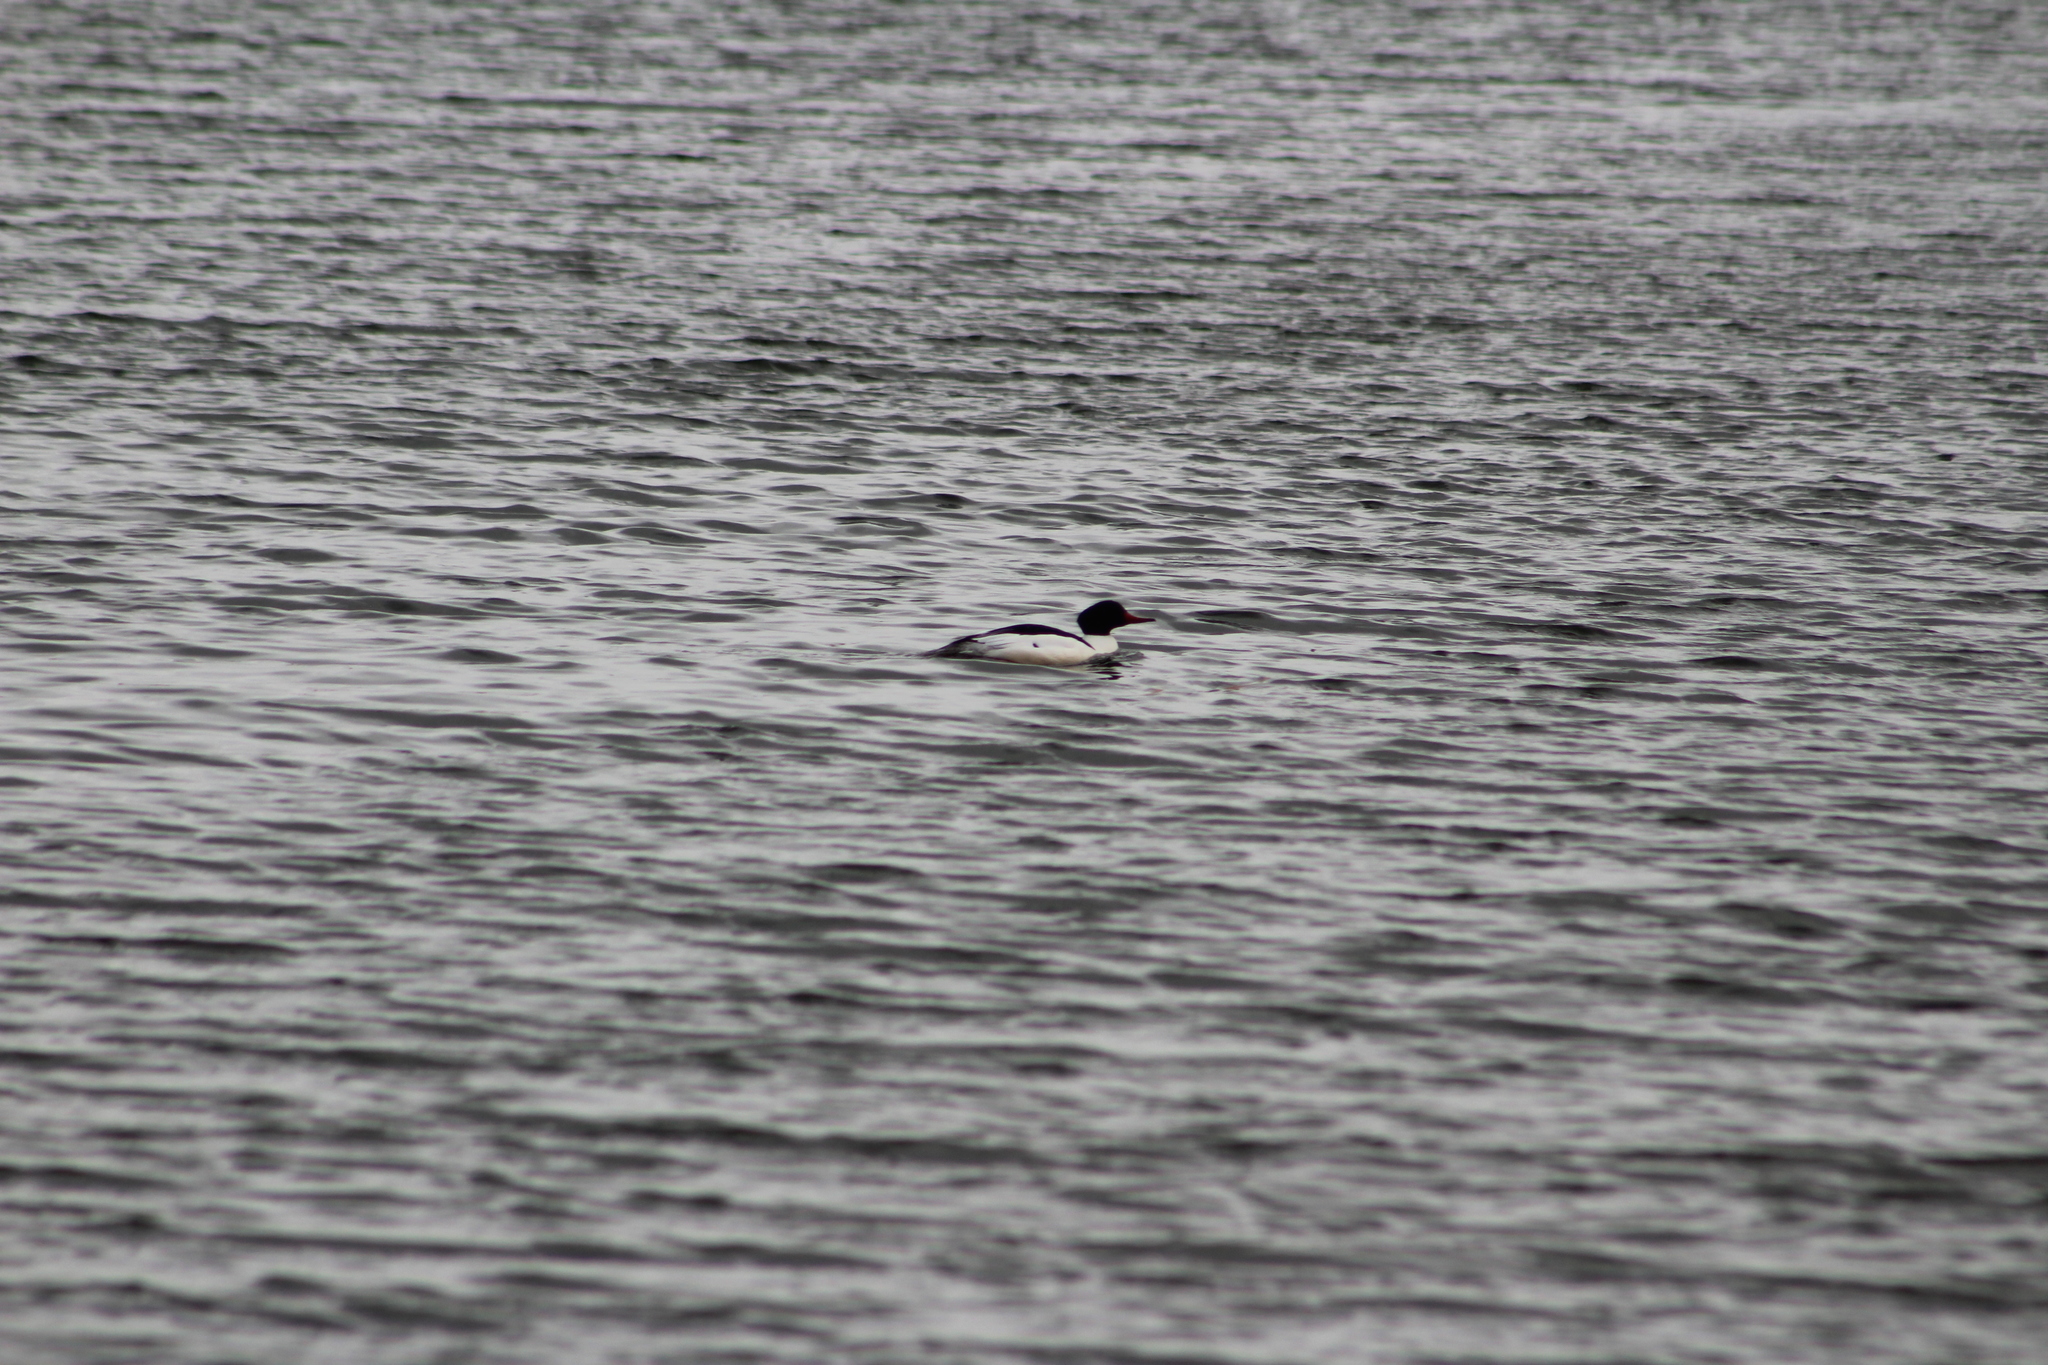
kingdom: Animalia
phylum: Chordata
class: Aves
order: Anseriformes
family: Anatidae
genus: Mergus
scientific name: Mergus merganser
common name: Common merganser
